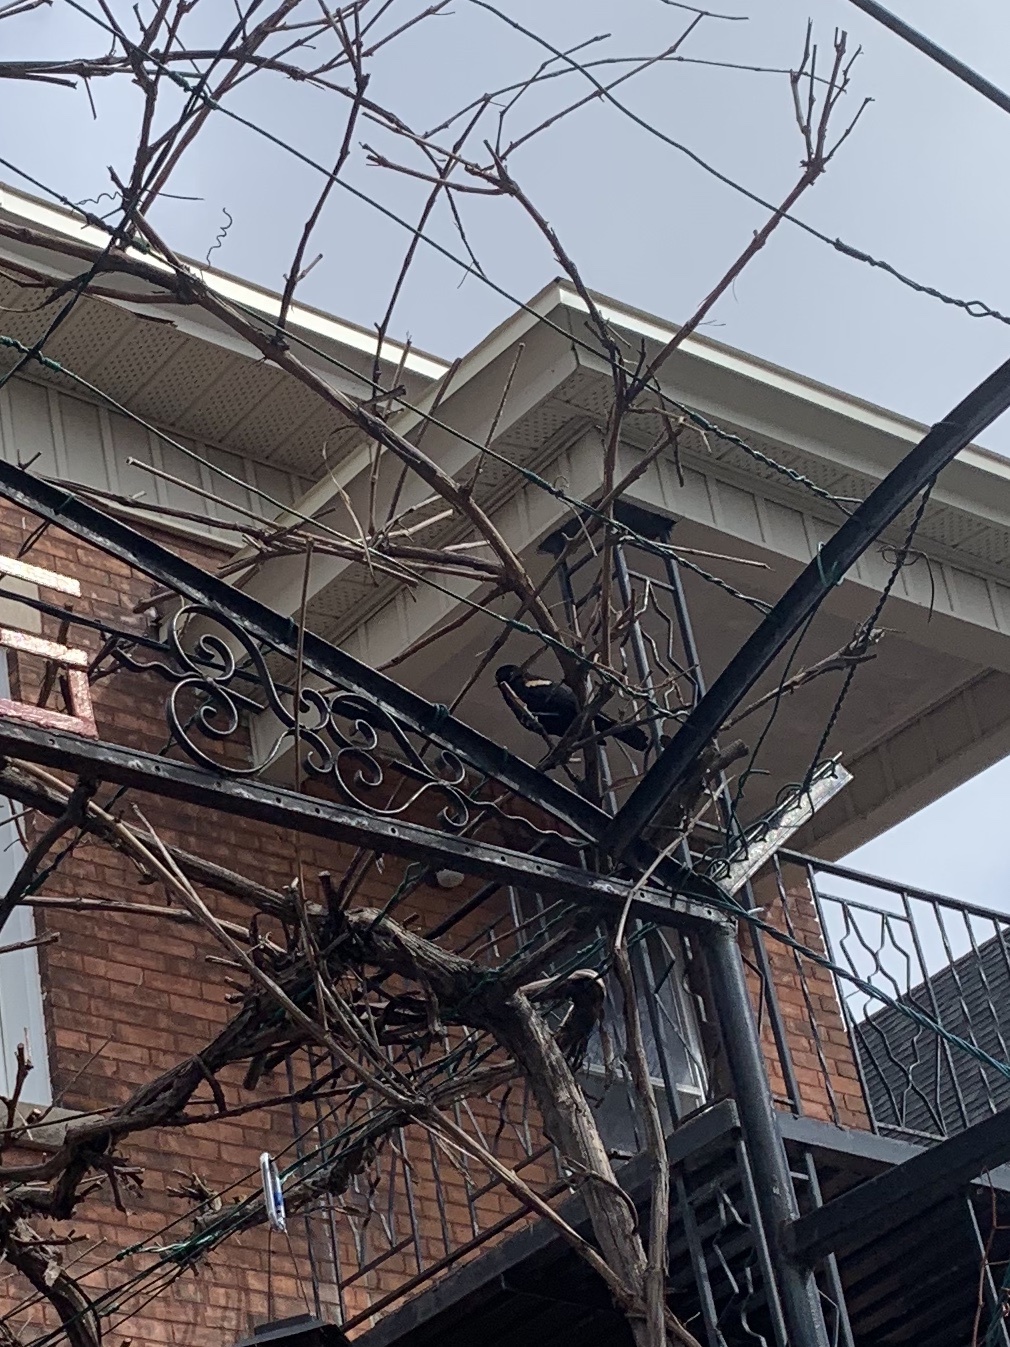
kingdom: Animalia
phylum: Chordata
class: Aves
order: Passeriformes
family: Icteridae
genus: Agelaius
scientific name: Agelaius phoeniceus
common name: Red-winged blackbird
